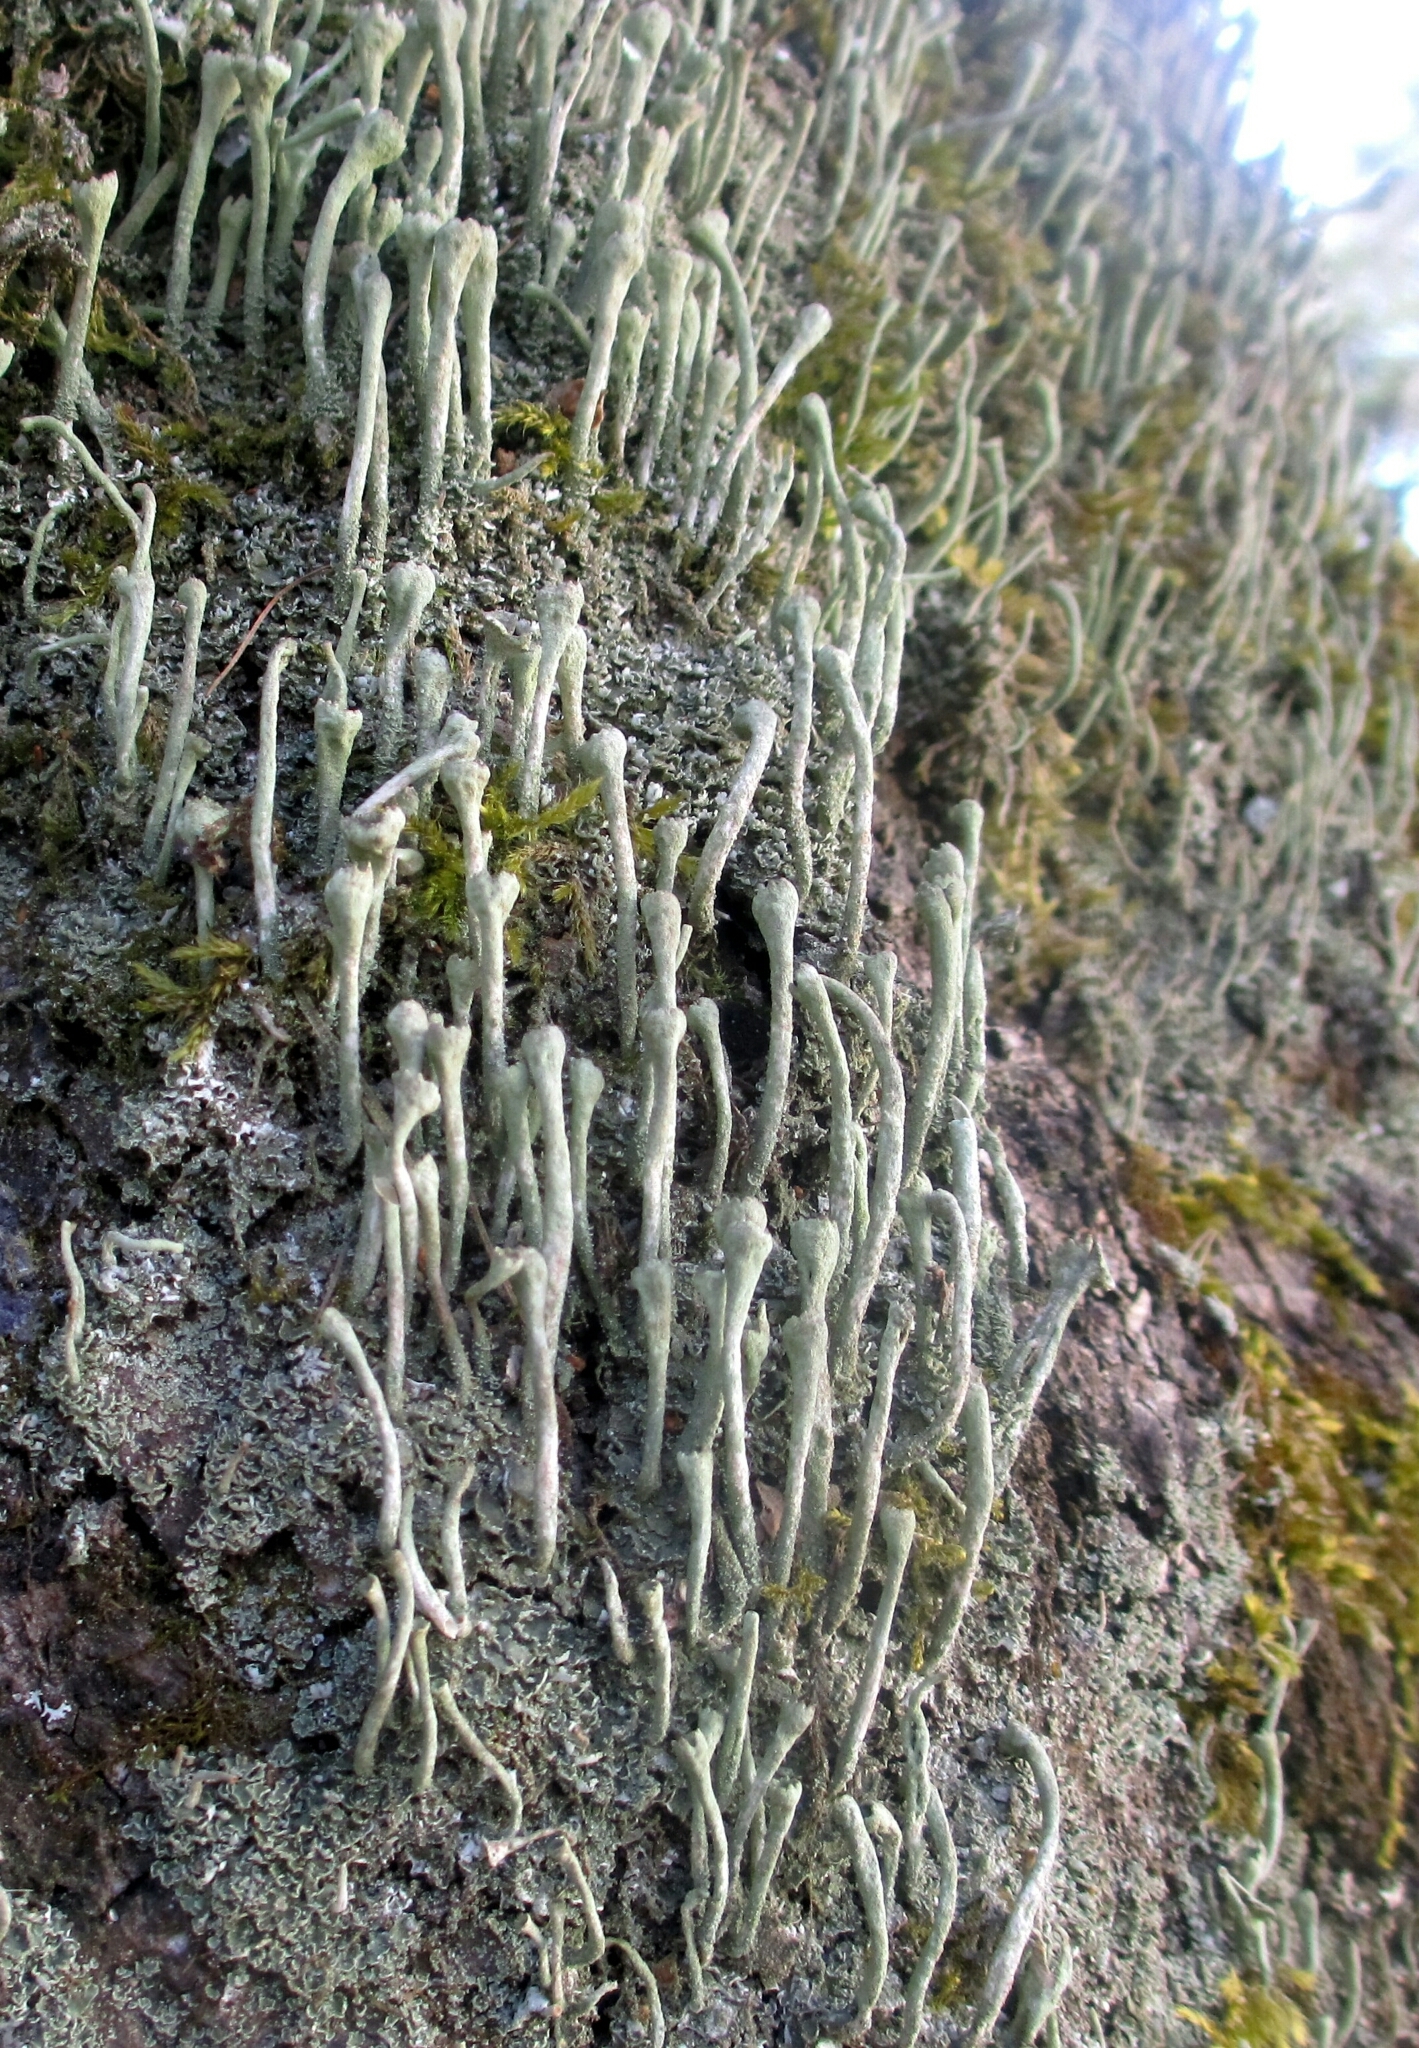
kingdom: Fungi
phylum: Ascomycota
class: Lecanoromycetes
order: Lecanorales
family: Cladoniaceae
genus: Cladonia
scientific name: Cladonia fimbriata
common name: Powdered trumpet lichen
